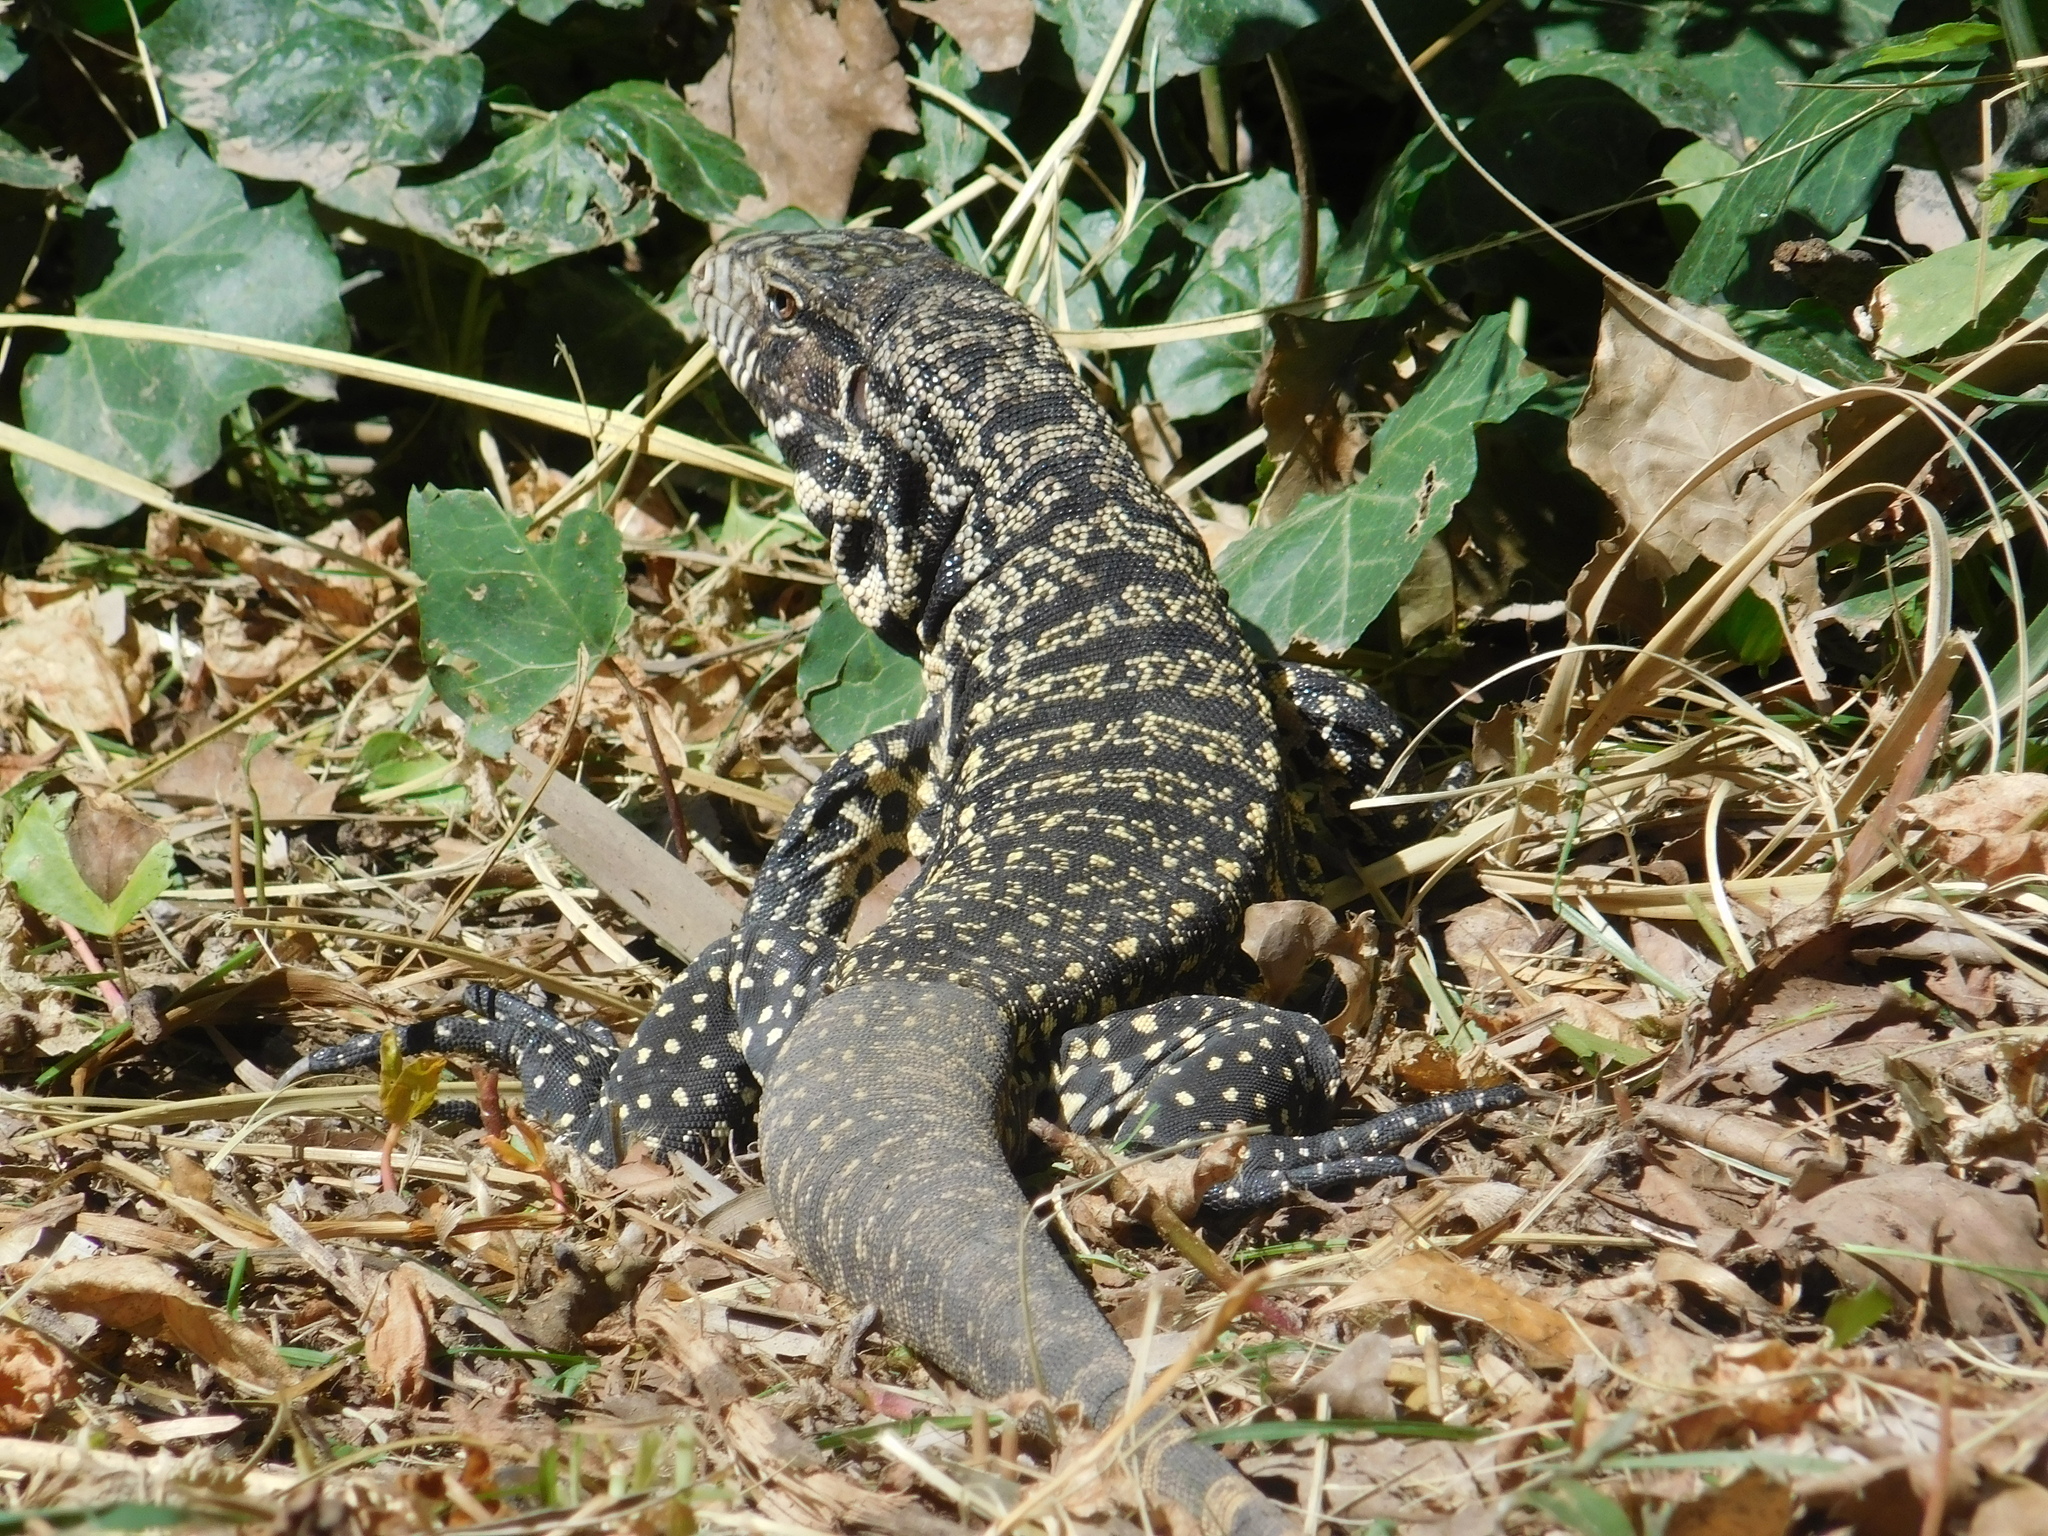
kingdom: Animalia
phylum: Chordata
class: Squamata
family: Teiidae
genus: Salvator
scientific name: Salvator merianae
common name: Argentine black and white tegu
